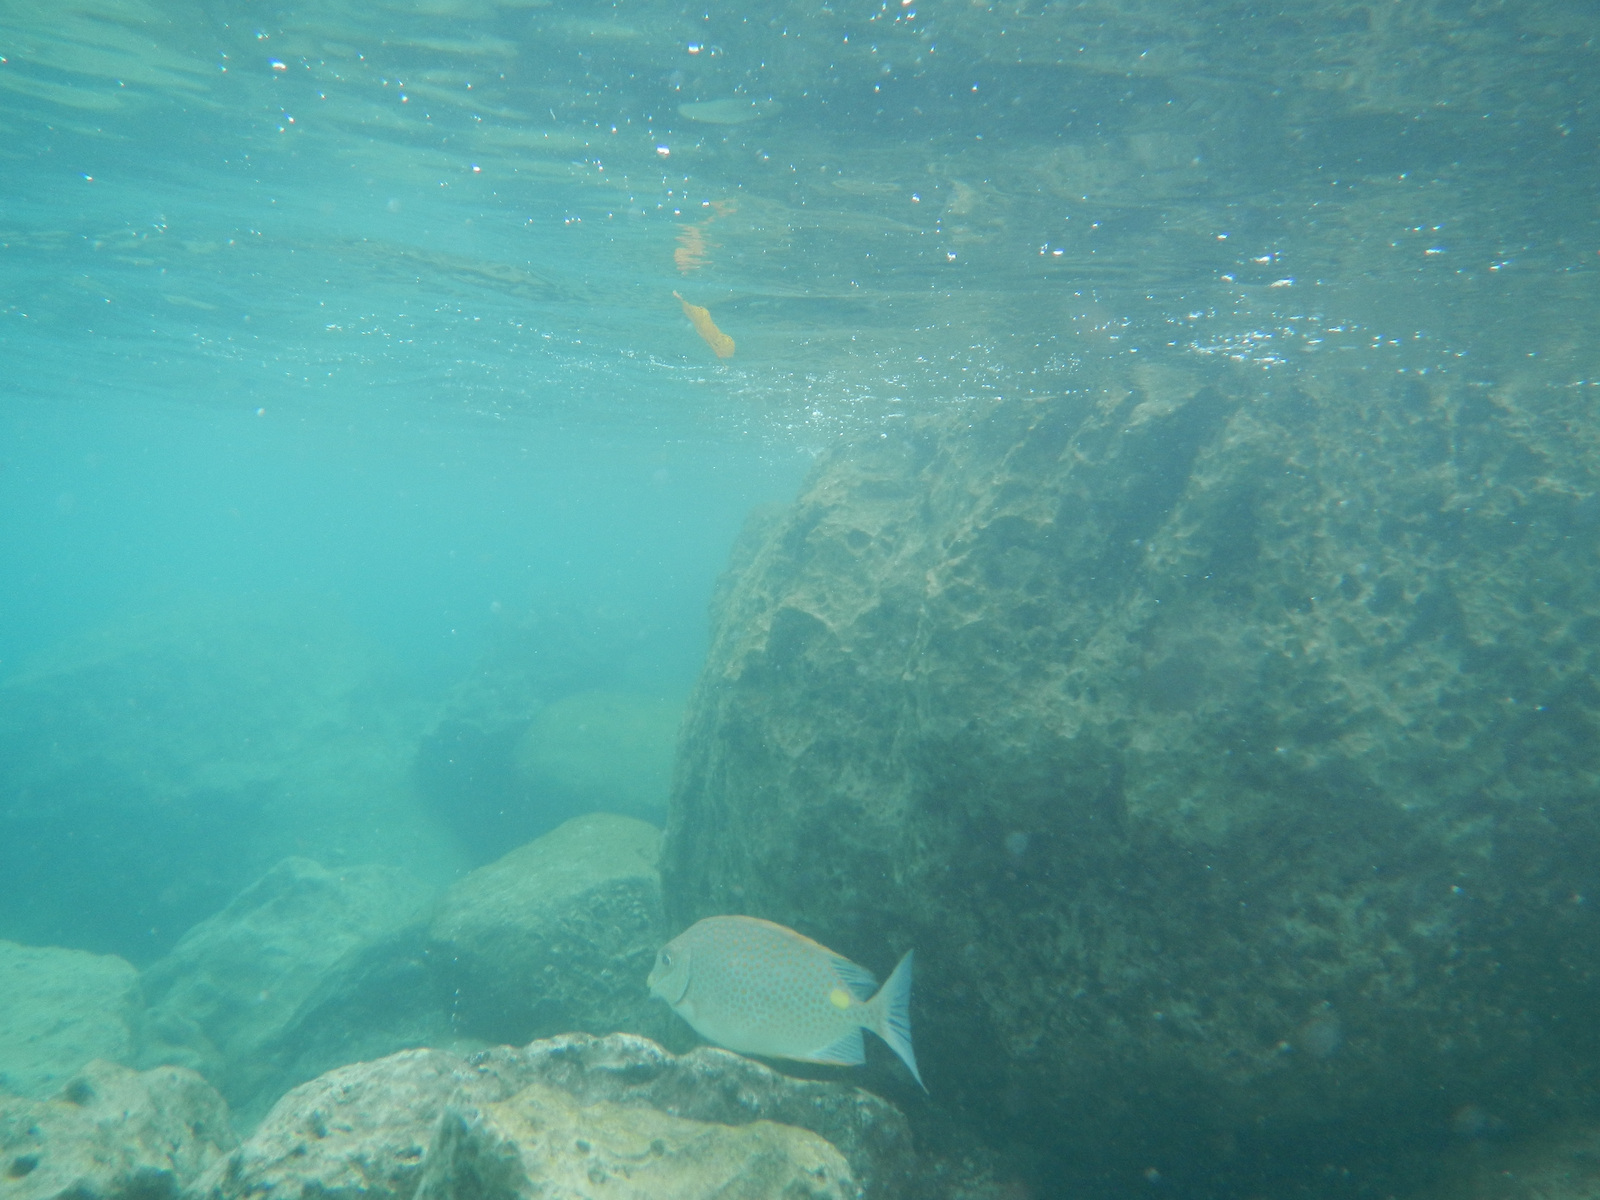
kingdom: Animalia
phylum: Chordata
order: Perciformes
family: Siganidae
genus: Siganus
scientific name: Siganus guttatus
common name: Golden rabbitfish
